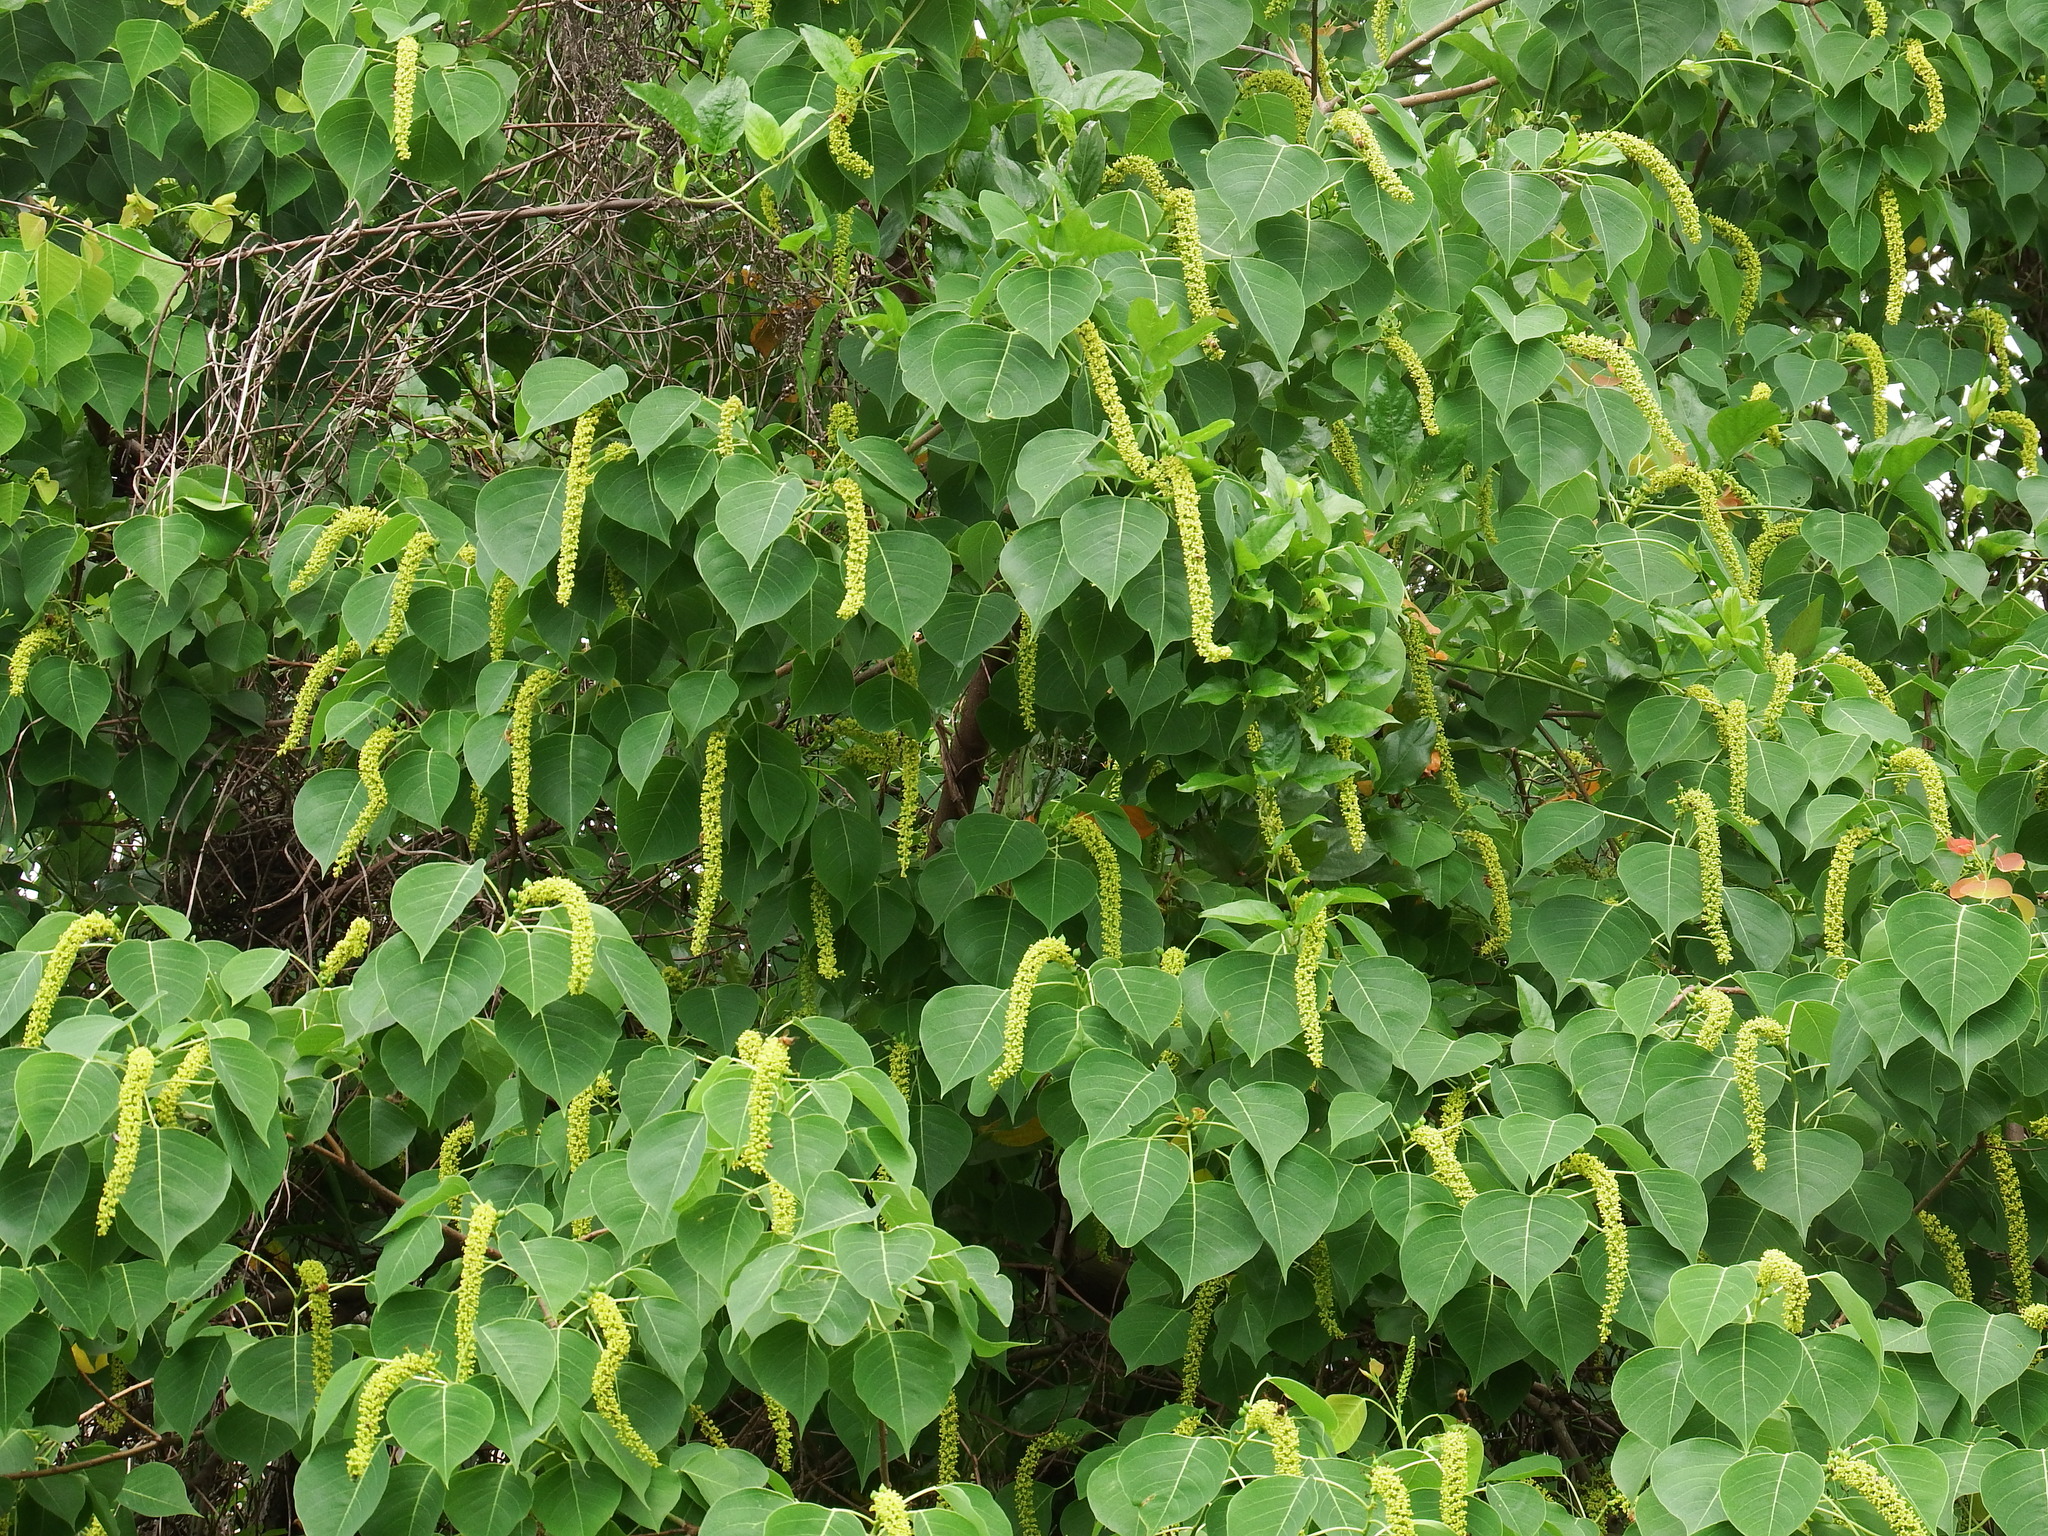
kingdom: Plantae
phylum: Tracheophyta
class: Magnoliopsida
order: Malpighiales
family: Euphorbiaceae
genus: Triadica
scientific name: Triadica sebifera
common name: Chinese tallow
